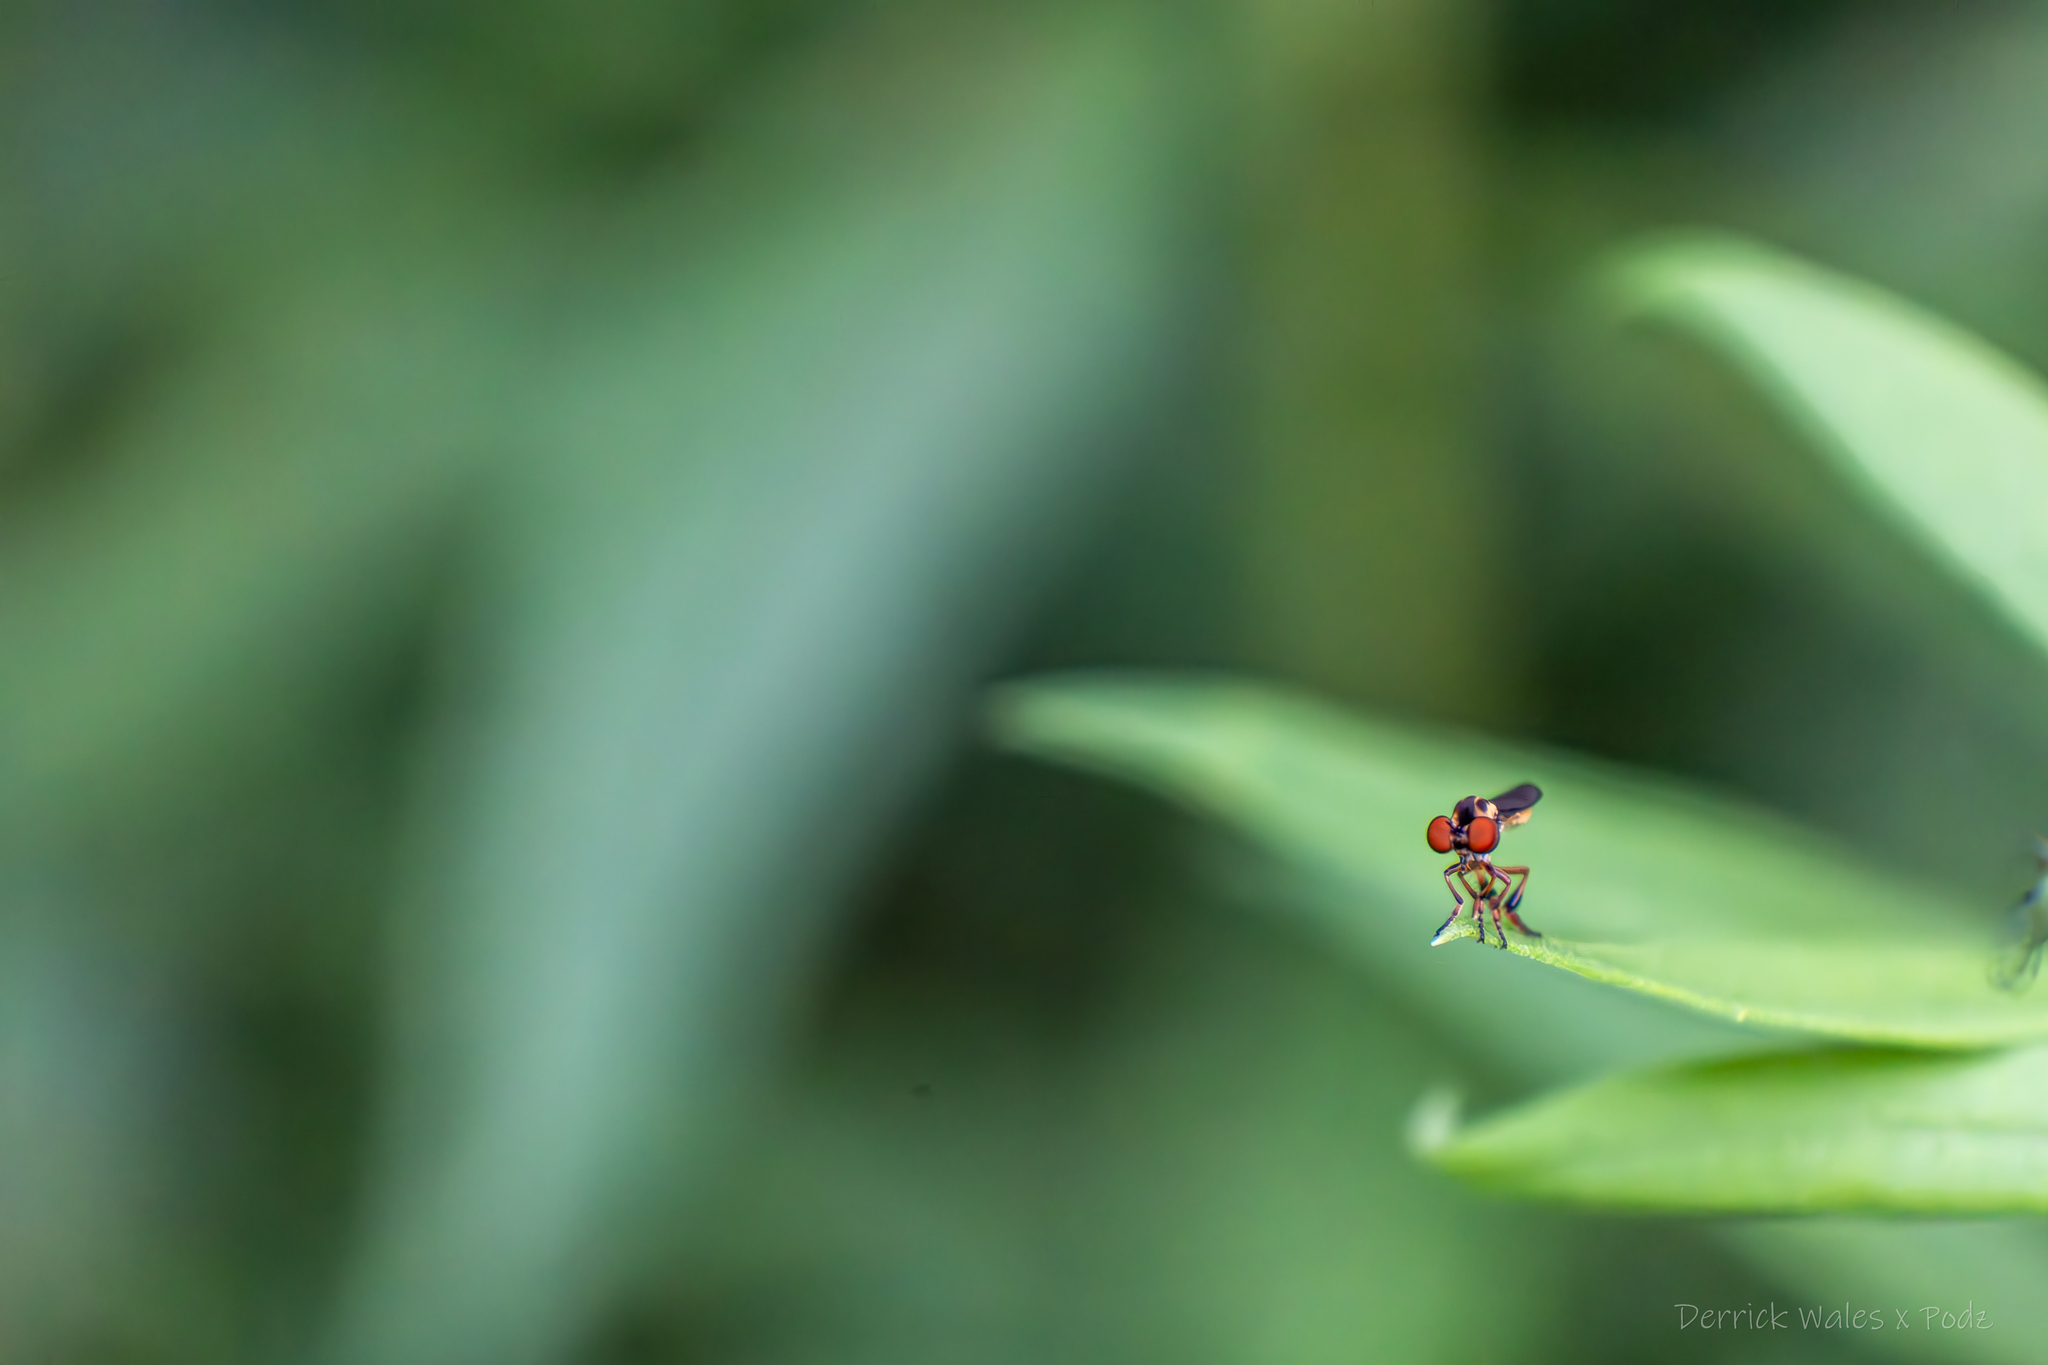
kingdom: Animalia
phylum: Arthropoda
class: Insecta
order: Diptera
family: Asilidae
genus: Holcocephala
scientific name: Holcocephala
